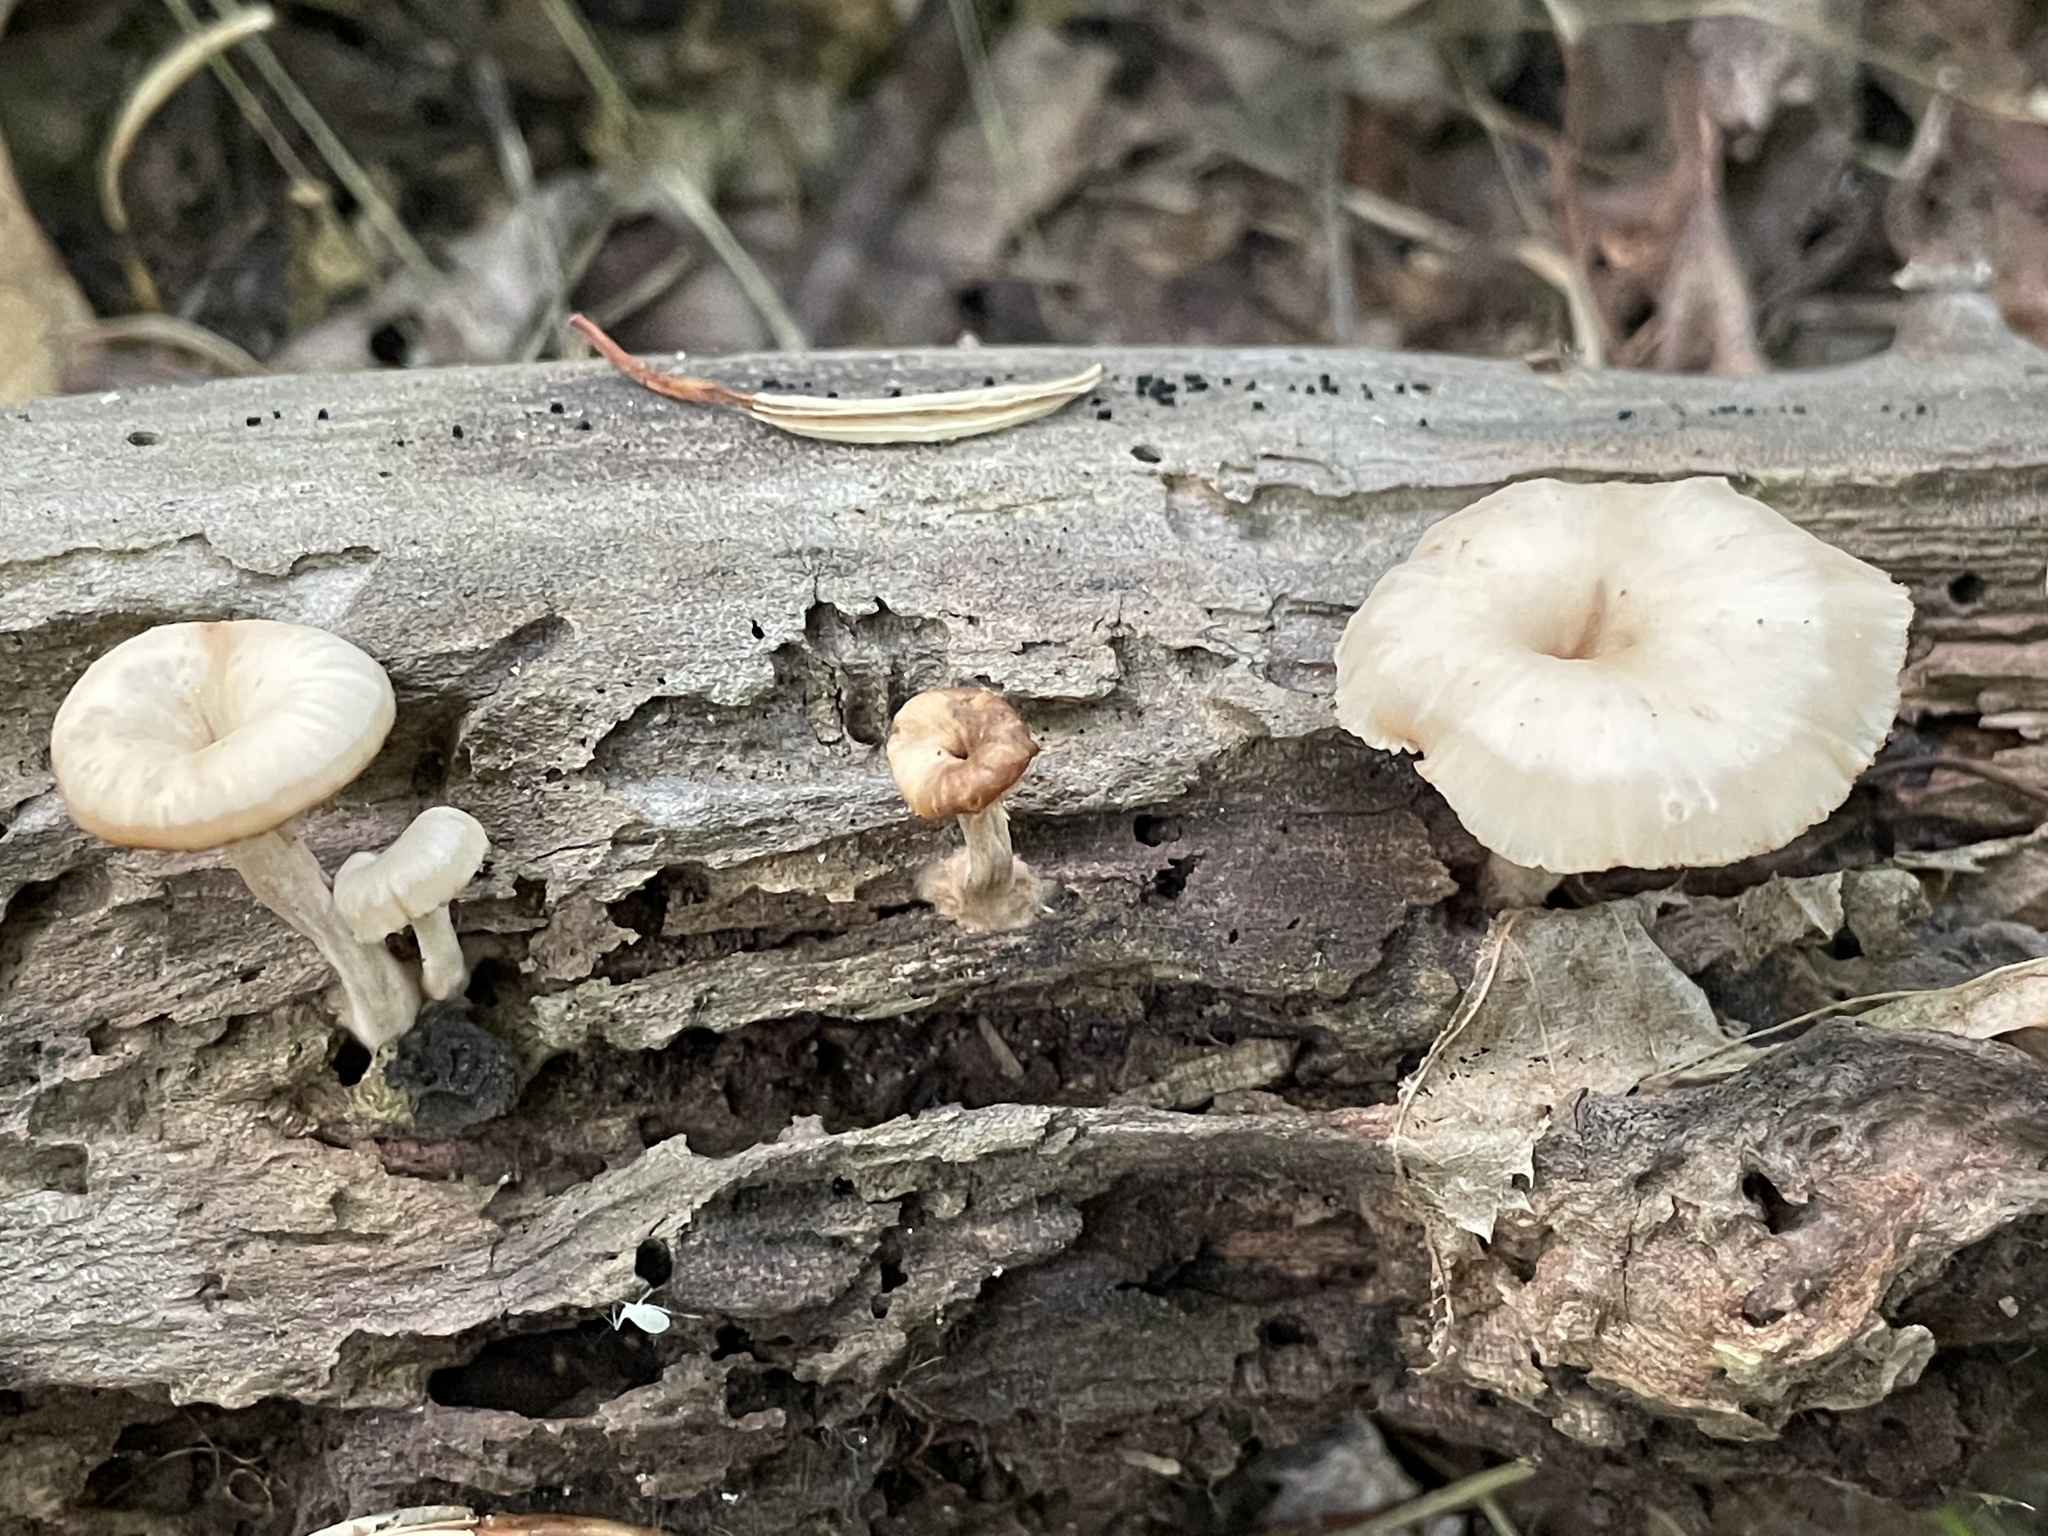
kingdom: Fungi
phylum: Basidiomycota
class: Agaricomycetes
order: Russulales
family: Auriscalpiaceae
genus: Lentinellus
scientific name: Lentinellus micheneri
